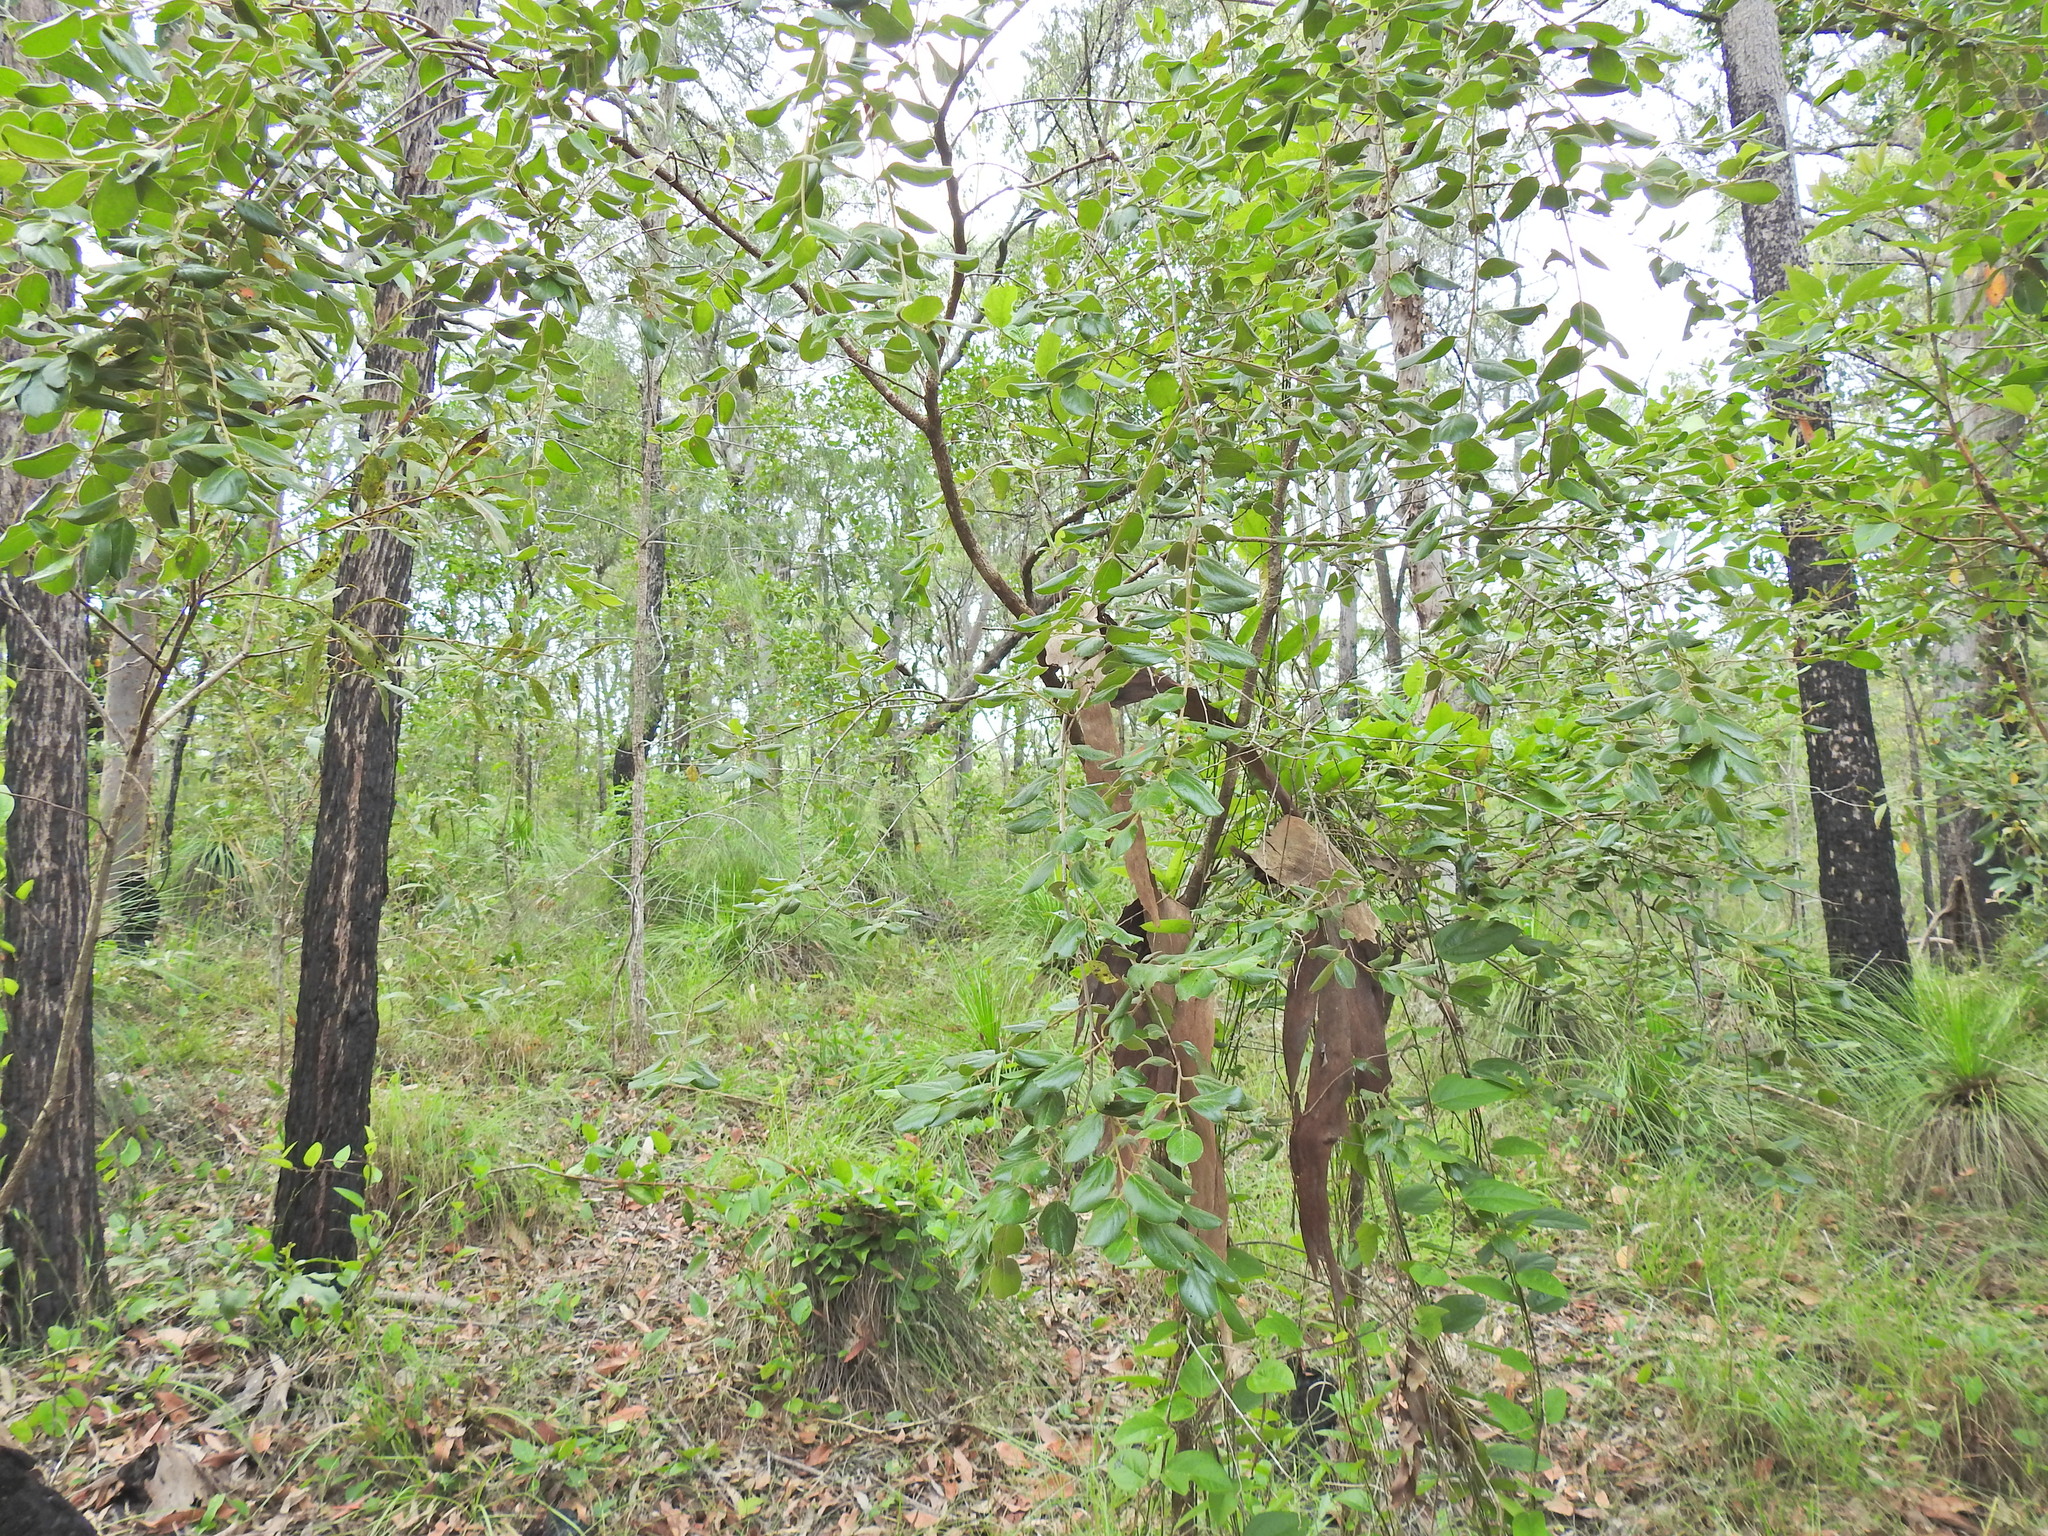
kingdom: Plantae
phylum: Tracheophyta
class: Magnoliopsida
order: Malpighiales
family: Picrodendraceae
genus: Petalostigma
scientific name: Petalostigma pubescens
